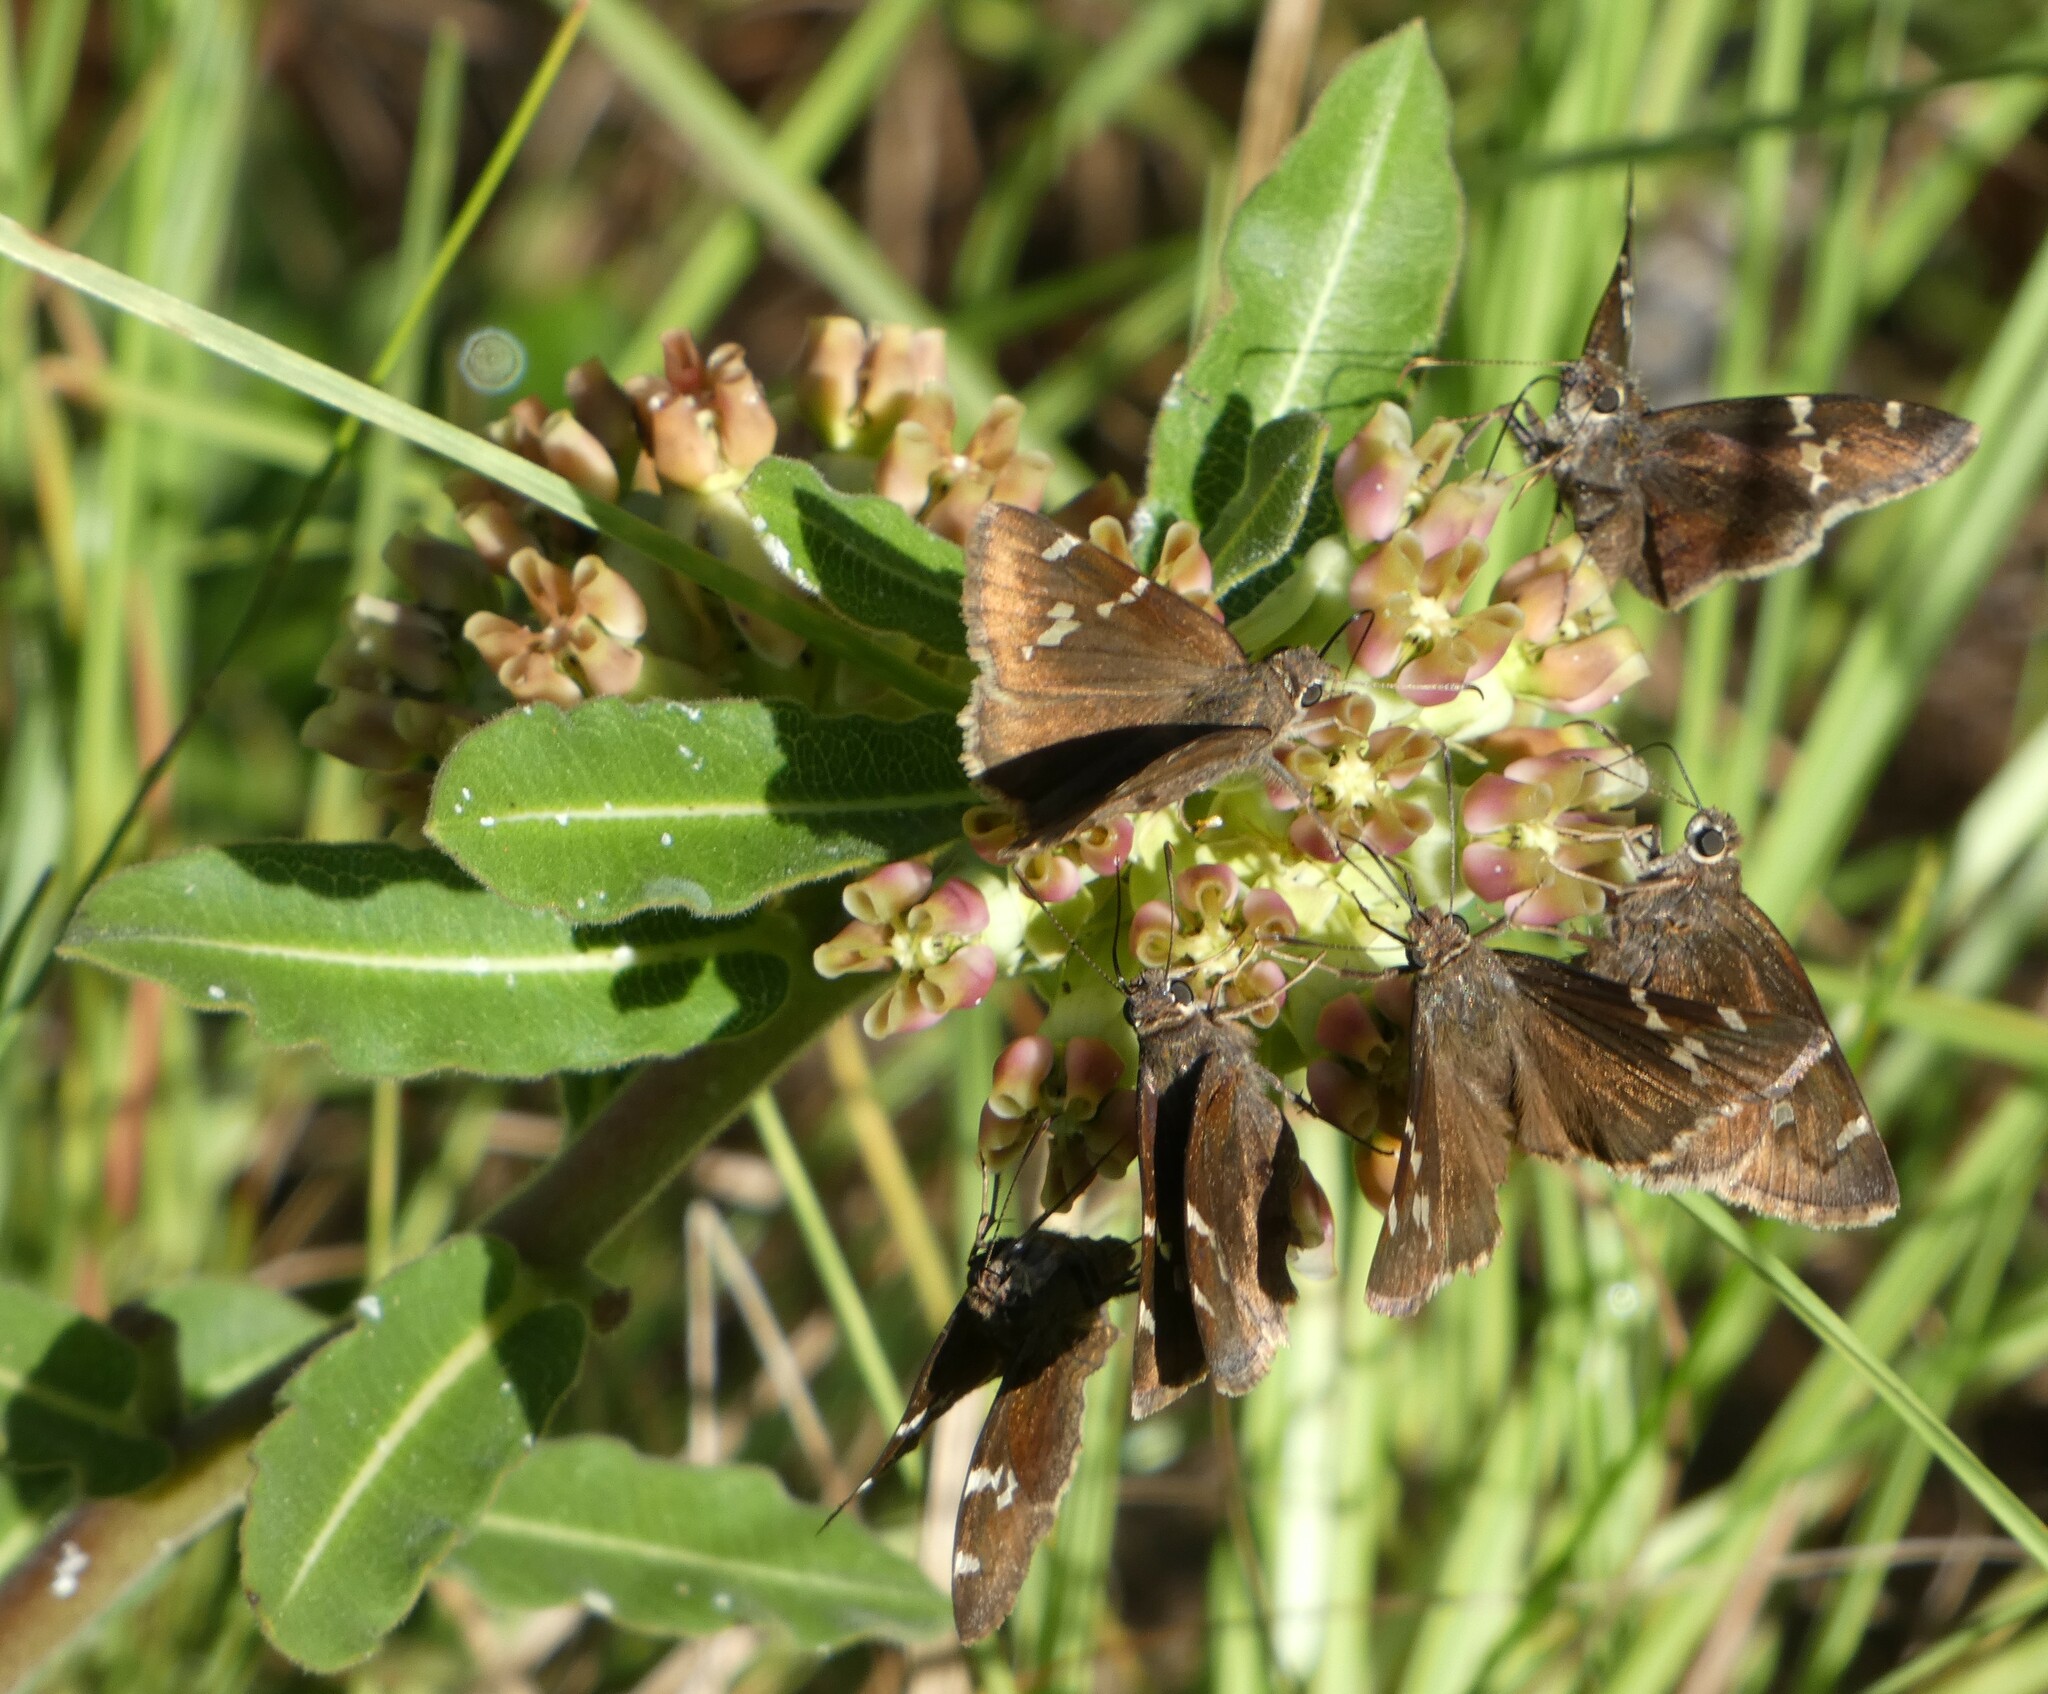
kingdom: Animalia
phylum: Arthropoda
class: Insecta
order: Lepidoptera
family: Hesperiidae
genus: Thorybes
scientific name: Thorybes daunus
